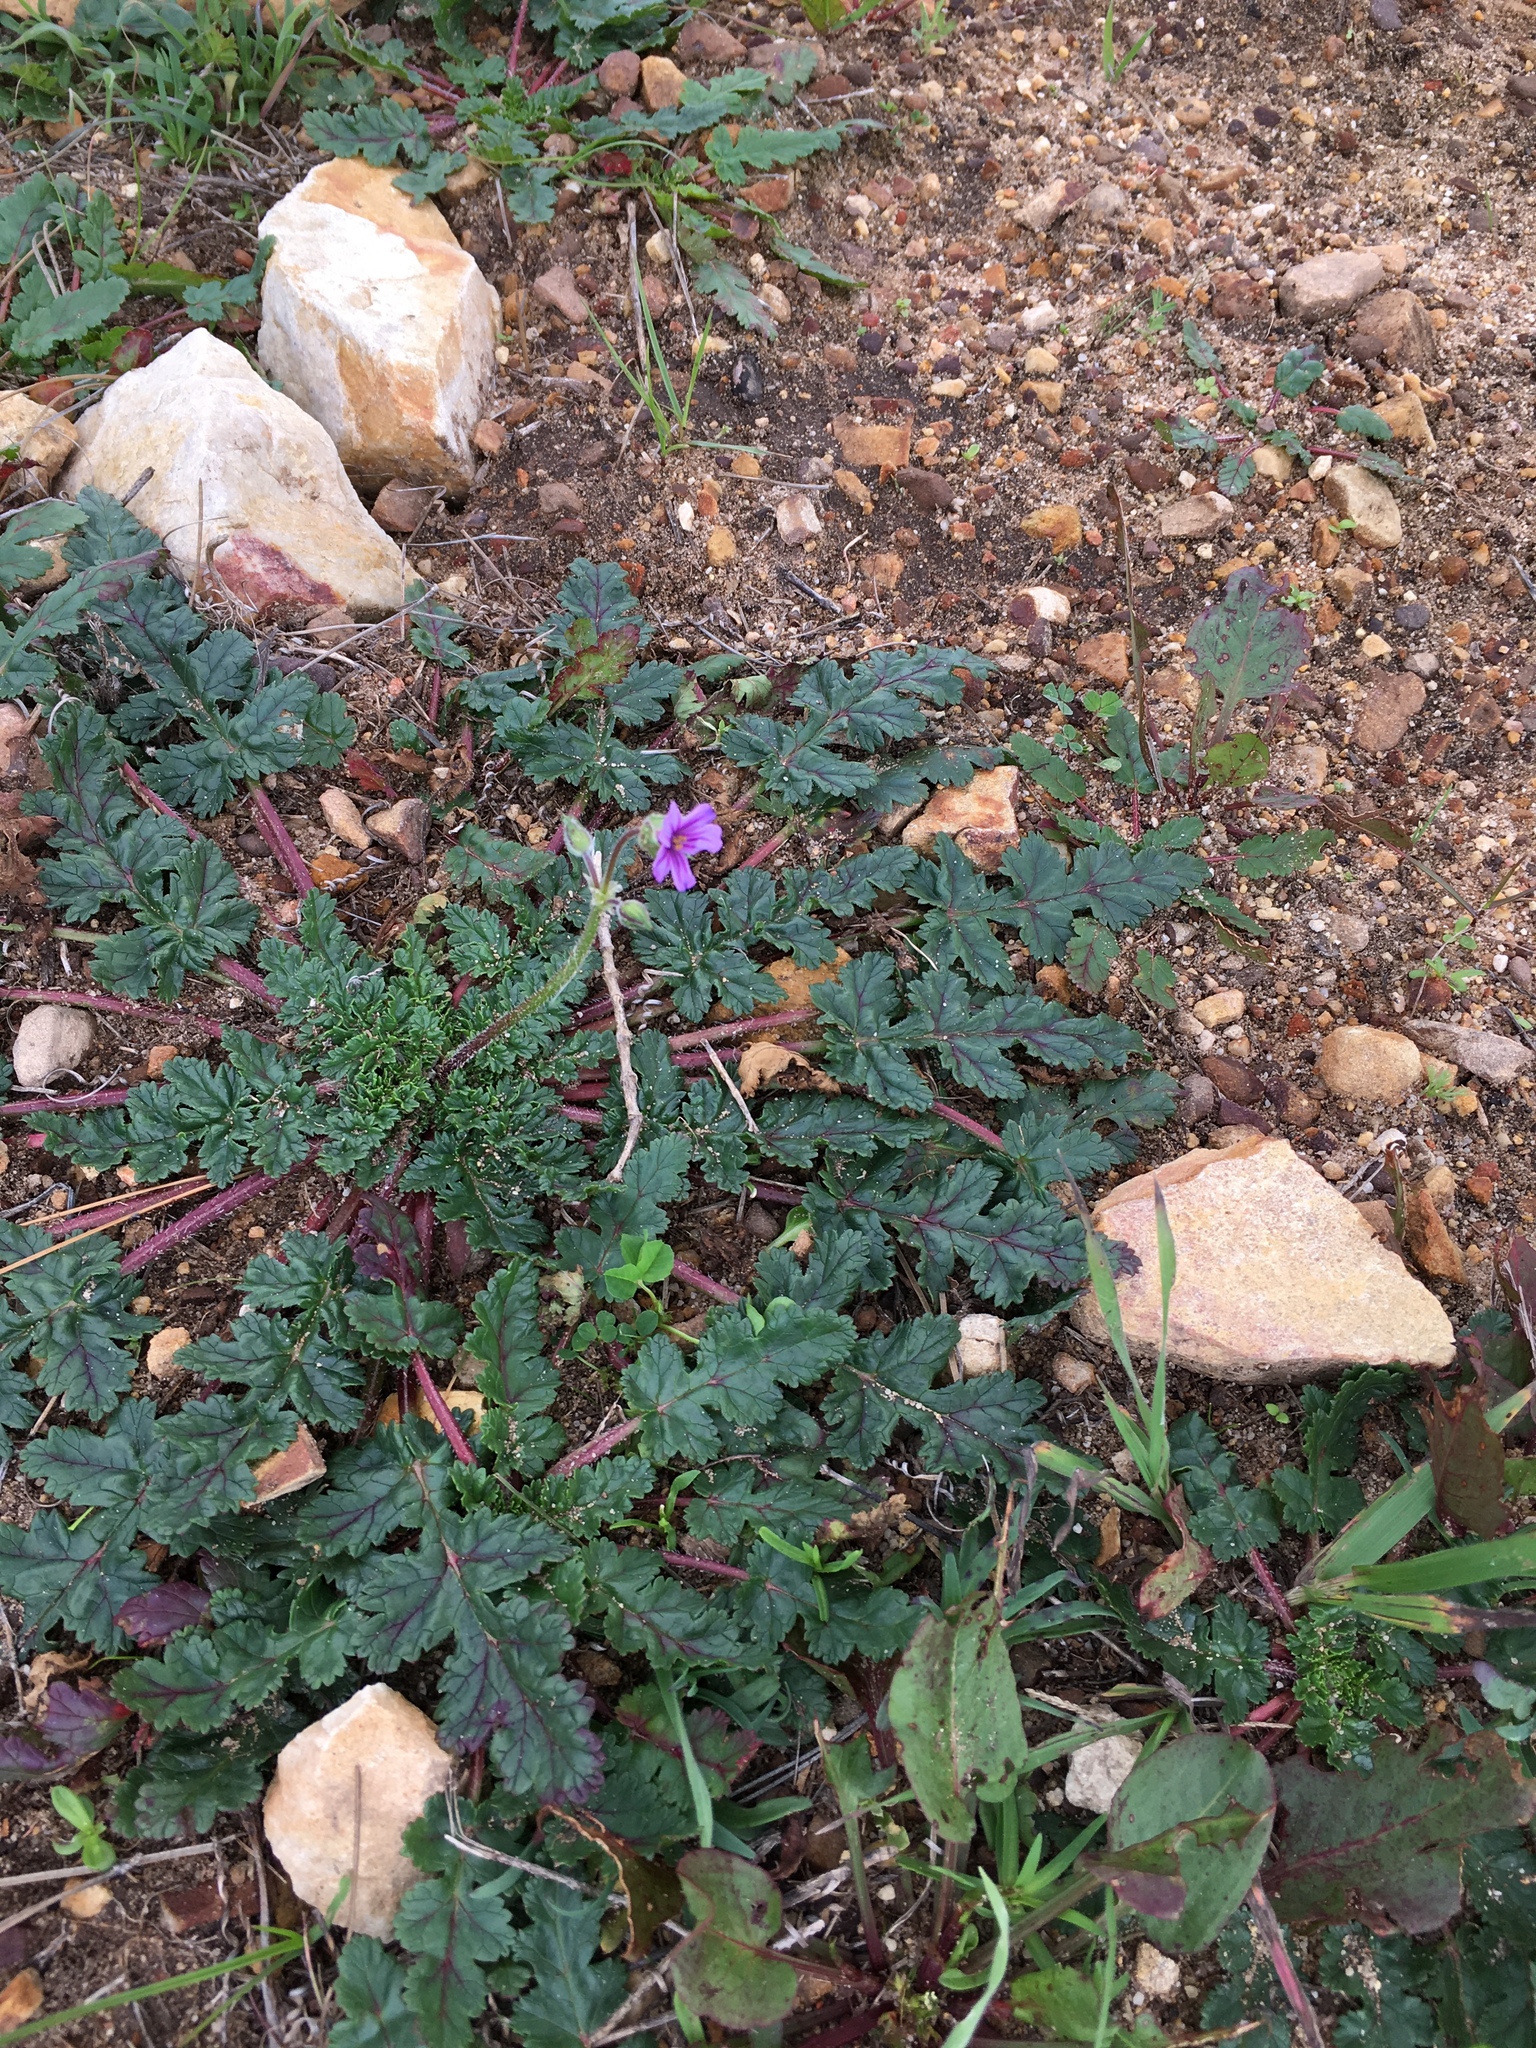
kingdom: Plantae
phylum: Tracheophyta
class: Magnoliopsida
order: Geraniales
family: Geraniaceae
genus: Erodium
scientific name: Erodium botrys
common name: Mediterranean stork's-bill
